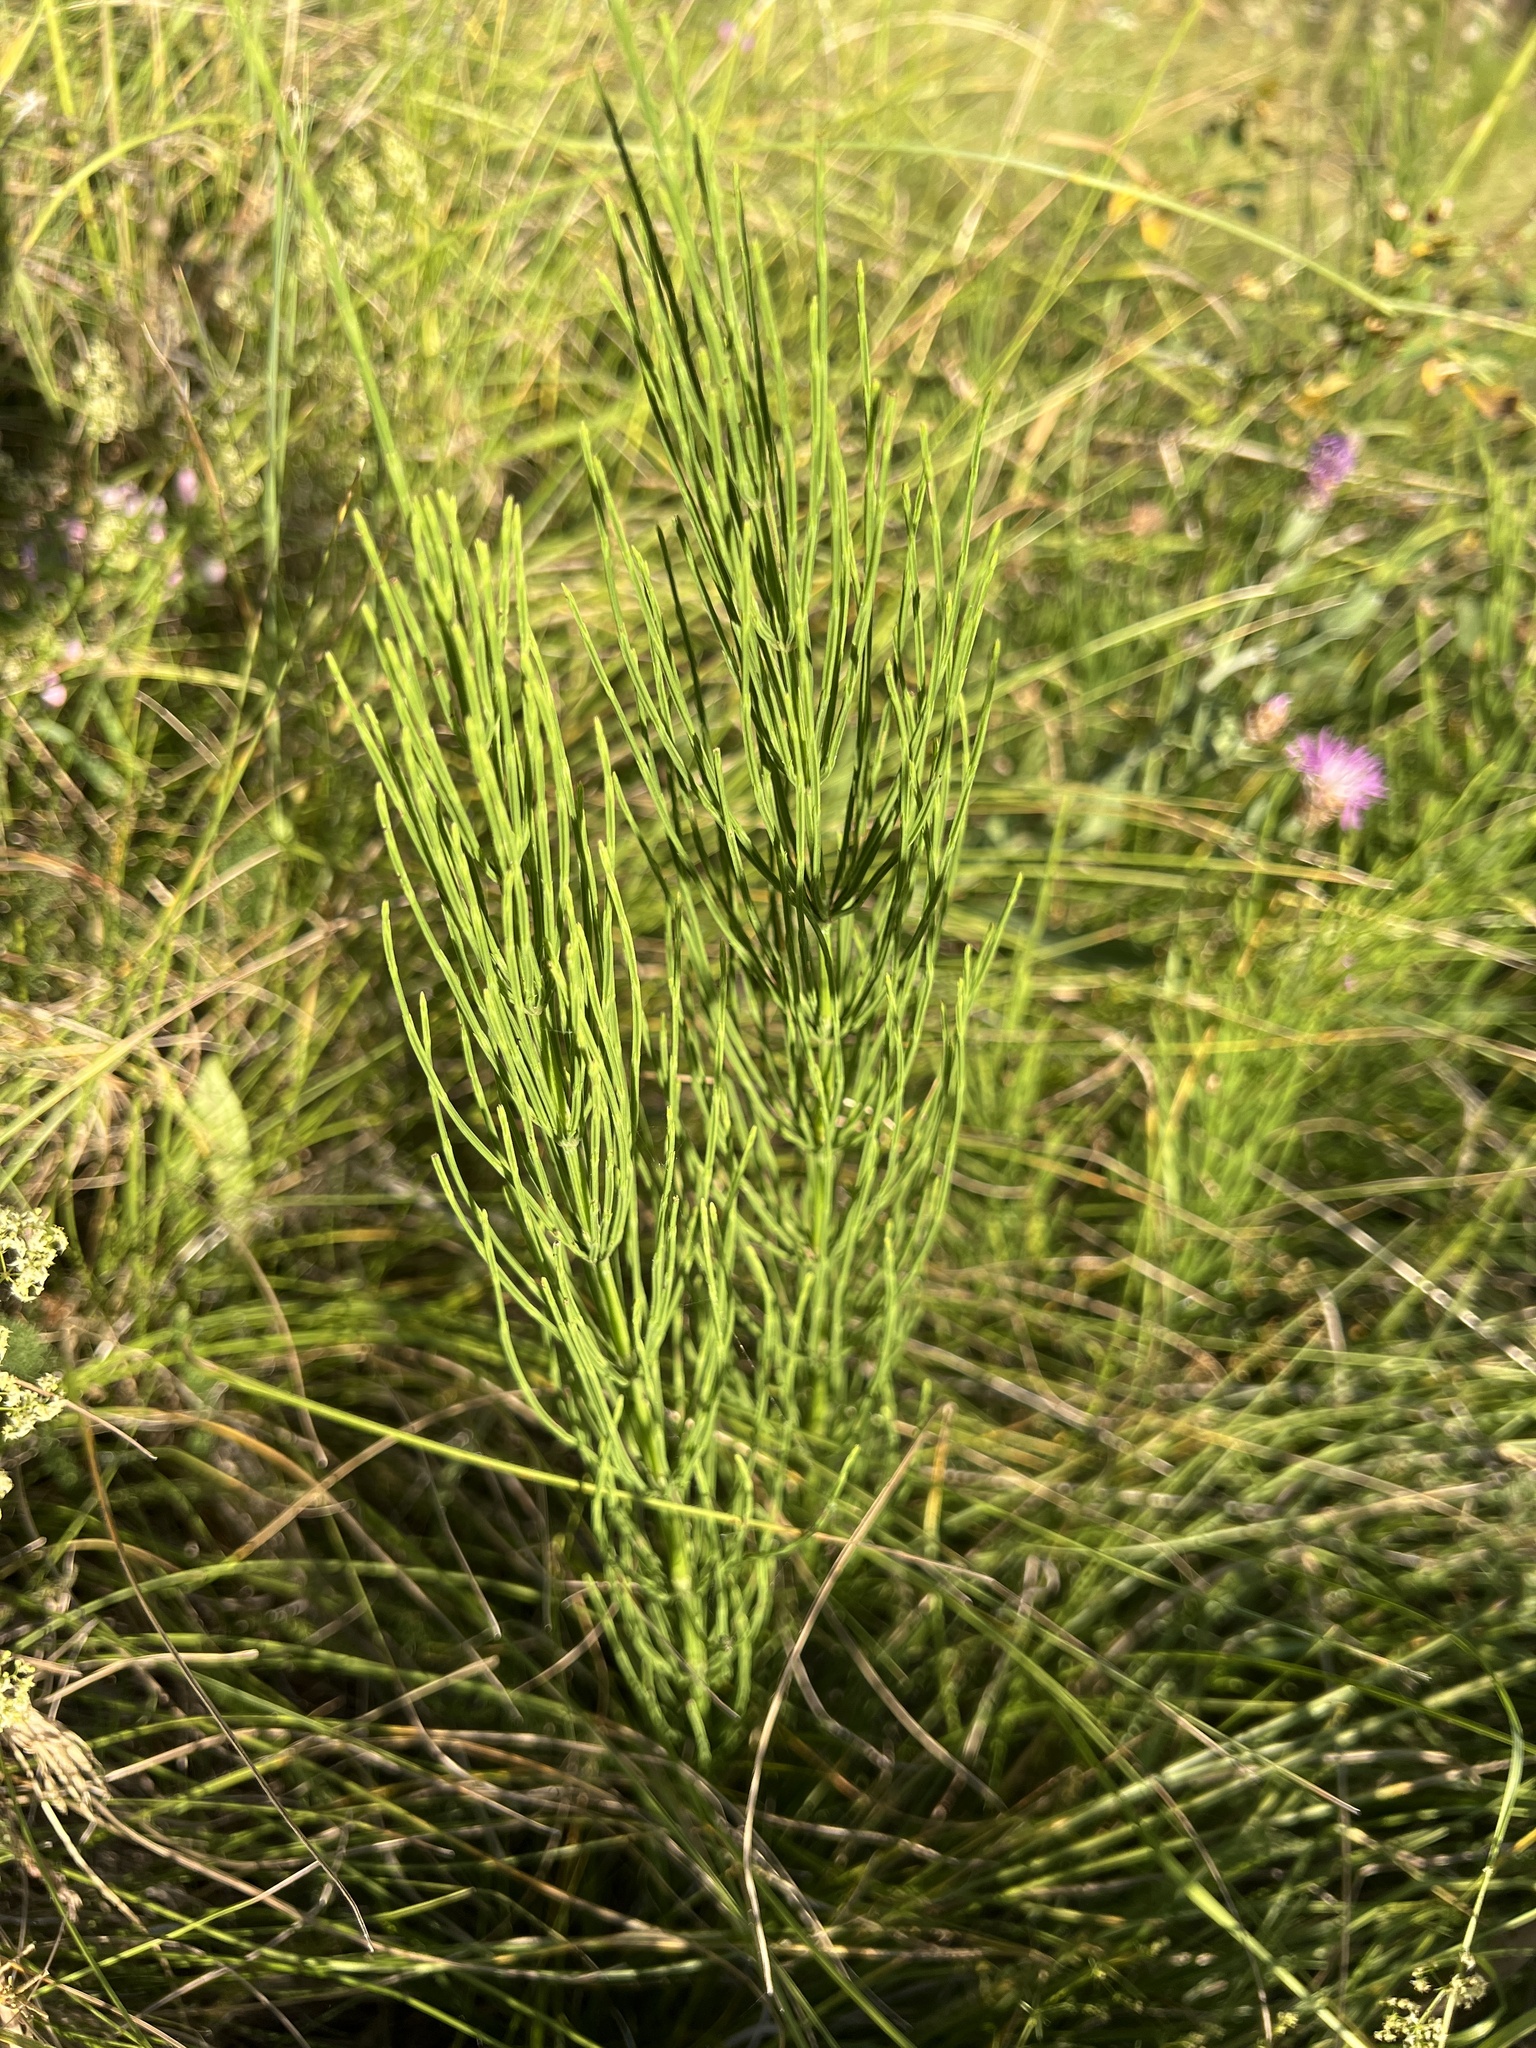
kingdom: Plantae
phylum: Tracheophyta
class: Polypodiopsida
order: Equisetales
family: Equisetaceae
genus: Equisetum
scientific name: Equisetum arvense
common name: Field horsetail
